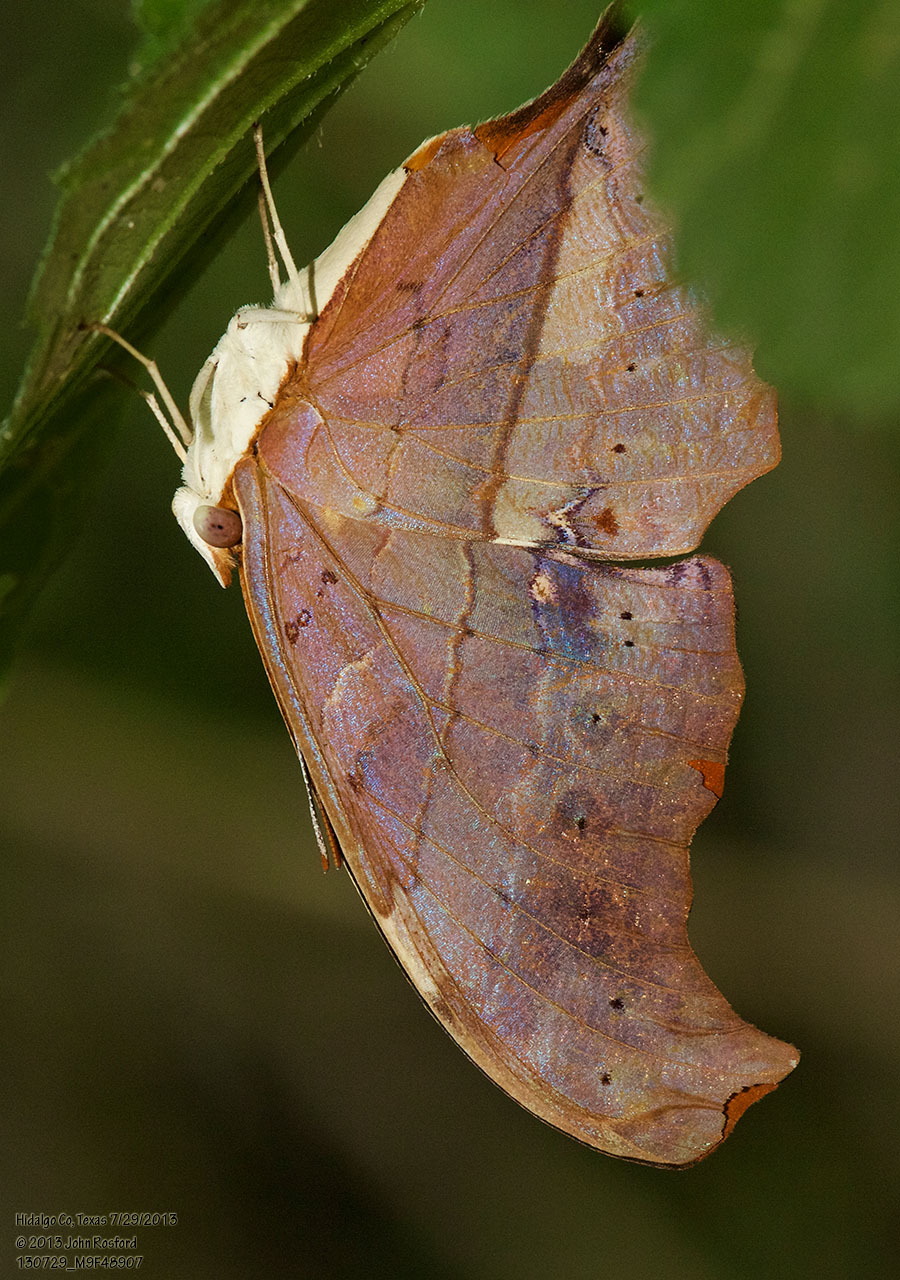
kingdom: Animalia
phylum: Arthropoda
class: Insecta
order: Lepidoptera
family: Nymphalidae
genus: Marpesia
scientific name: Marpesia petreus
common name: Red dagger wing
